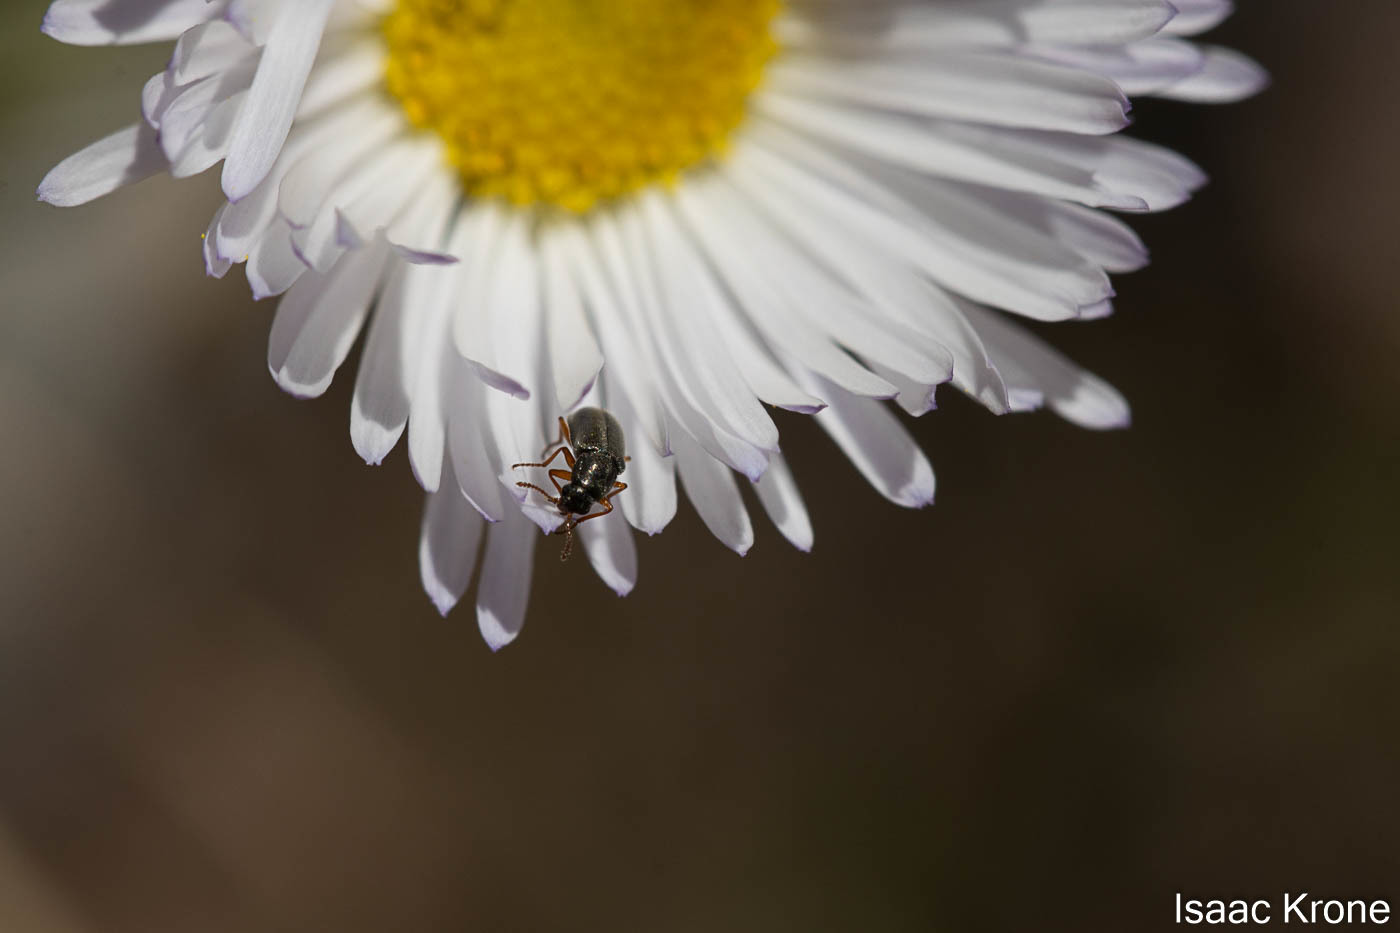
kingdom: Animalia
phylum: Arthropoda
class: Insecta
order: Coleoptera
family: Dasytidae
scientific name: Dasytidae
